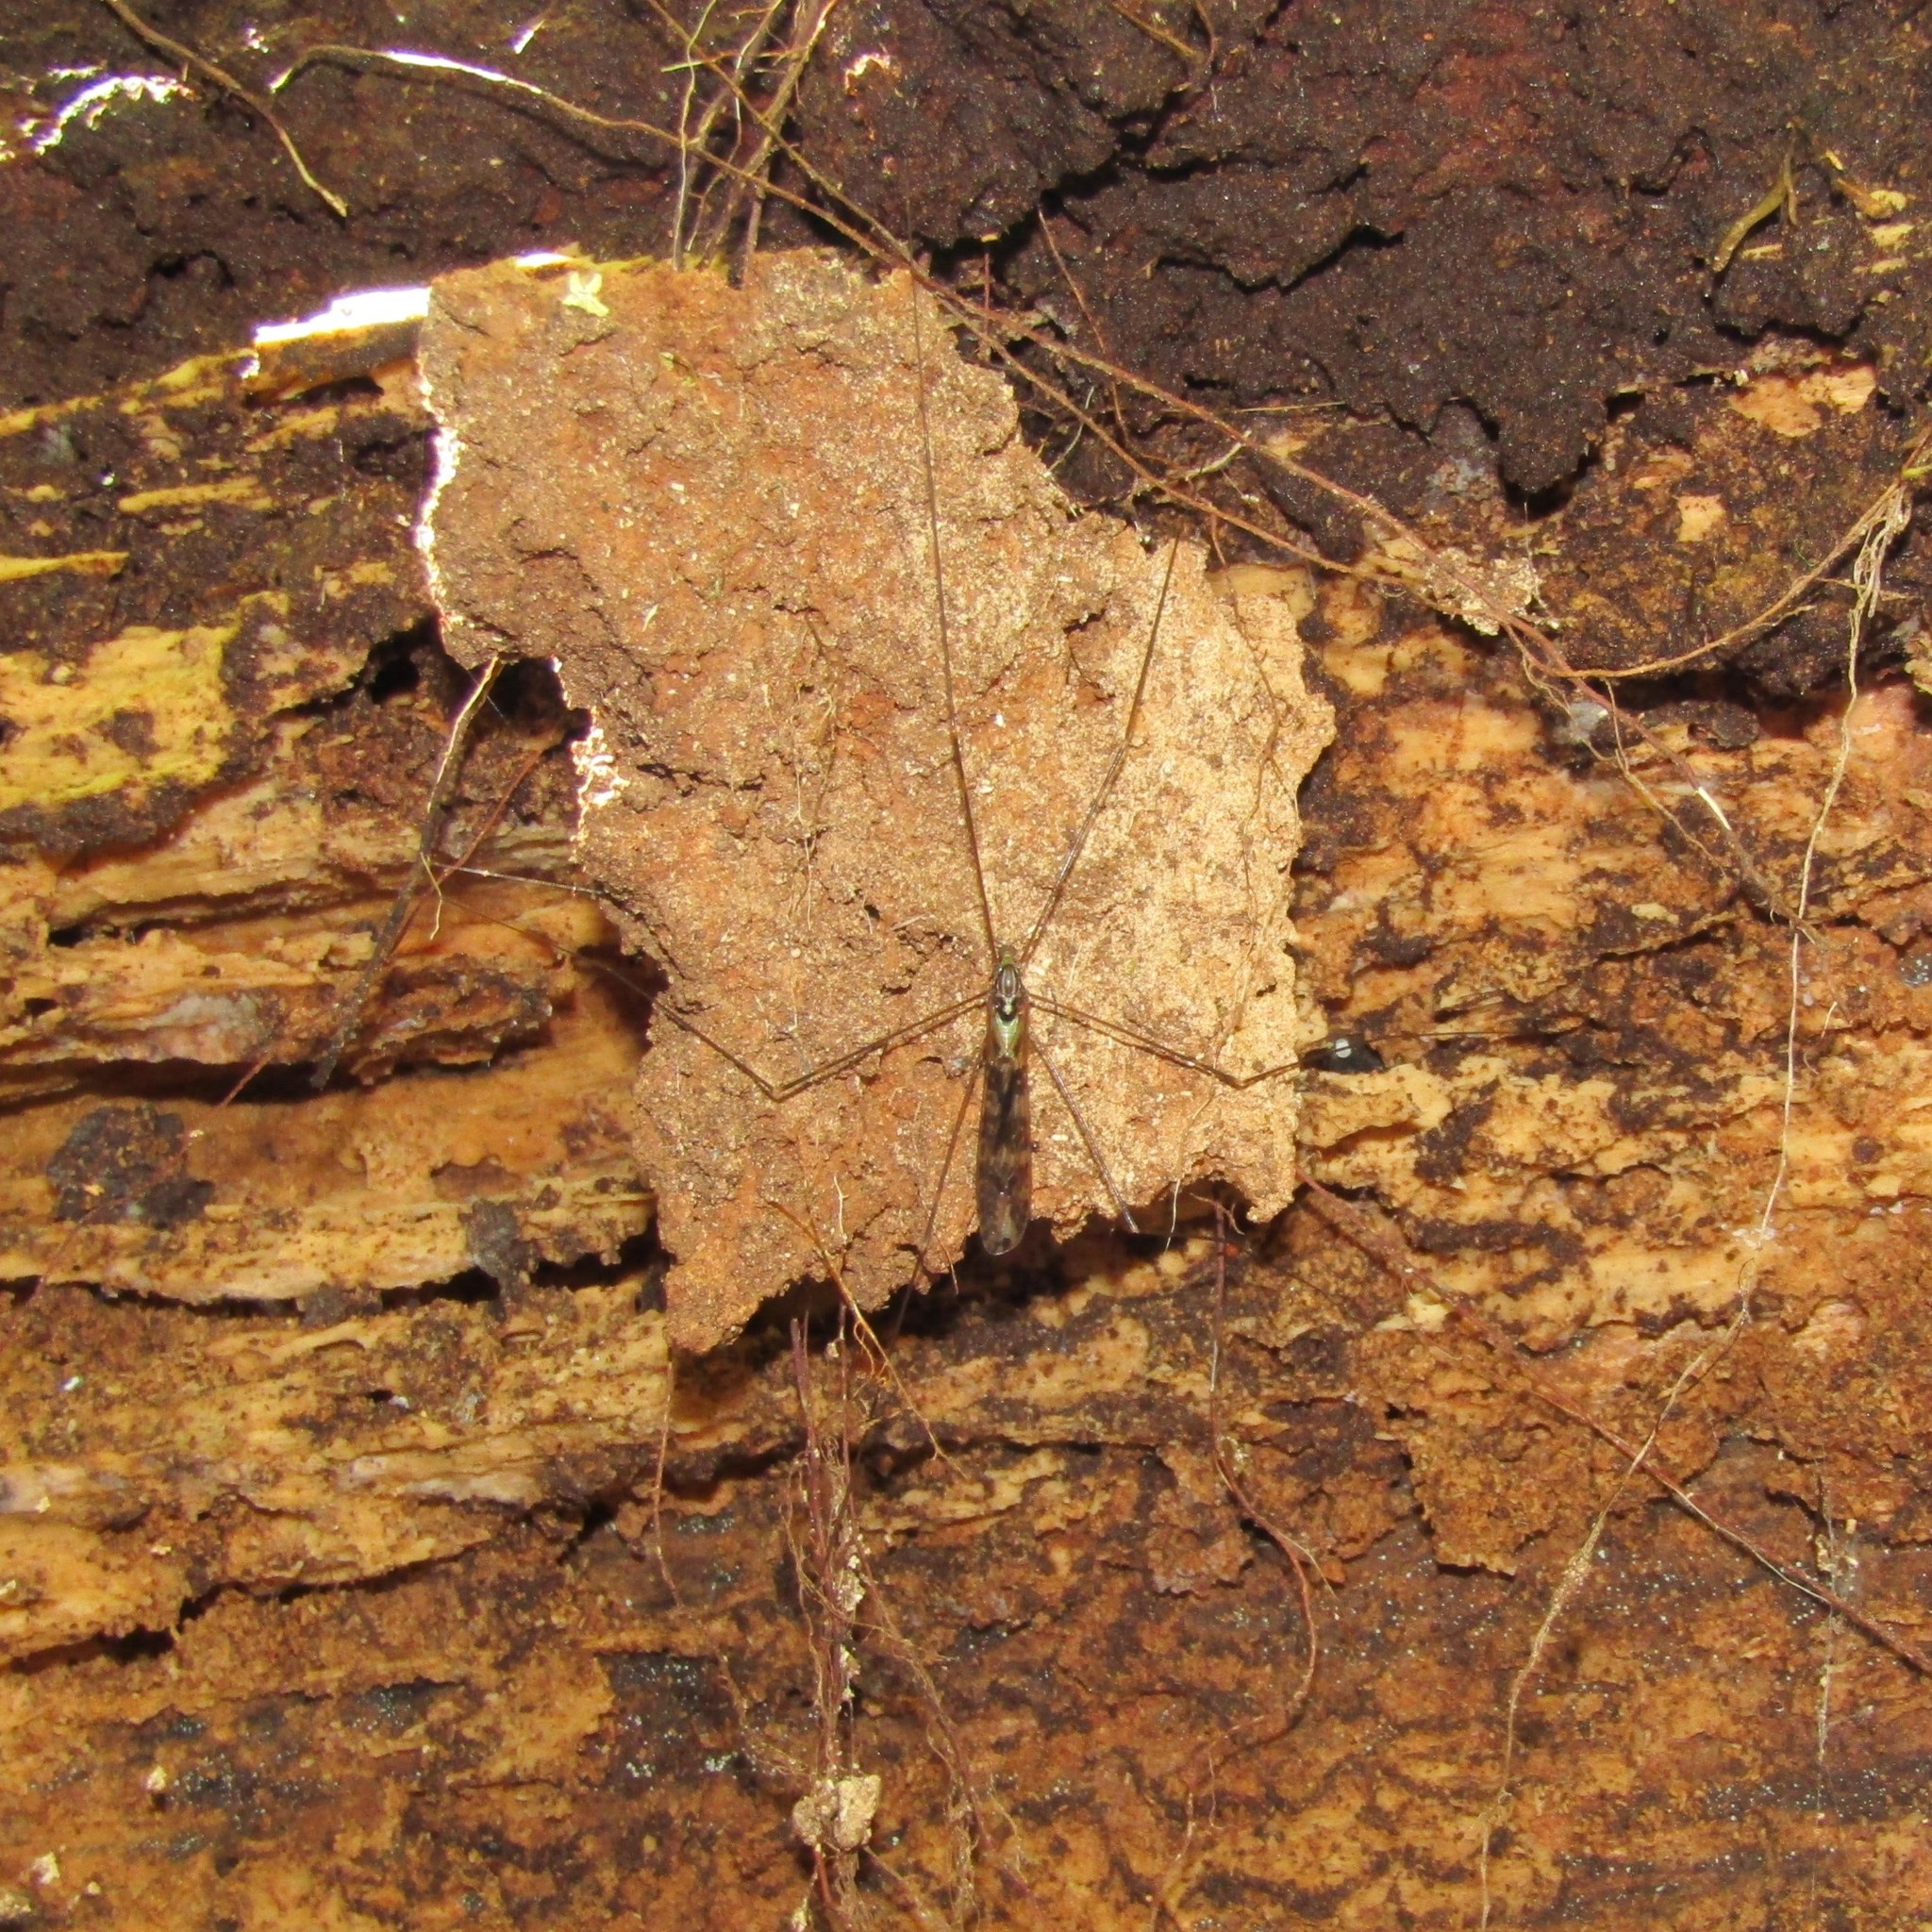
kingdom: Animalia
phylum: Arthropoda
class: Insecta
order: Diptera
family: Limoniidae
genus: Discobola
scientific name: Discobola dohrni
